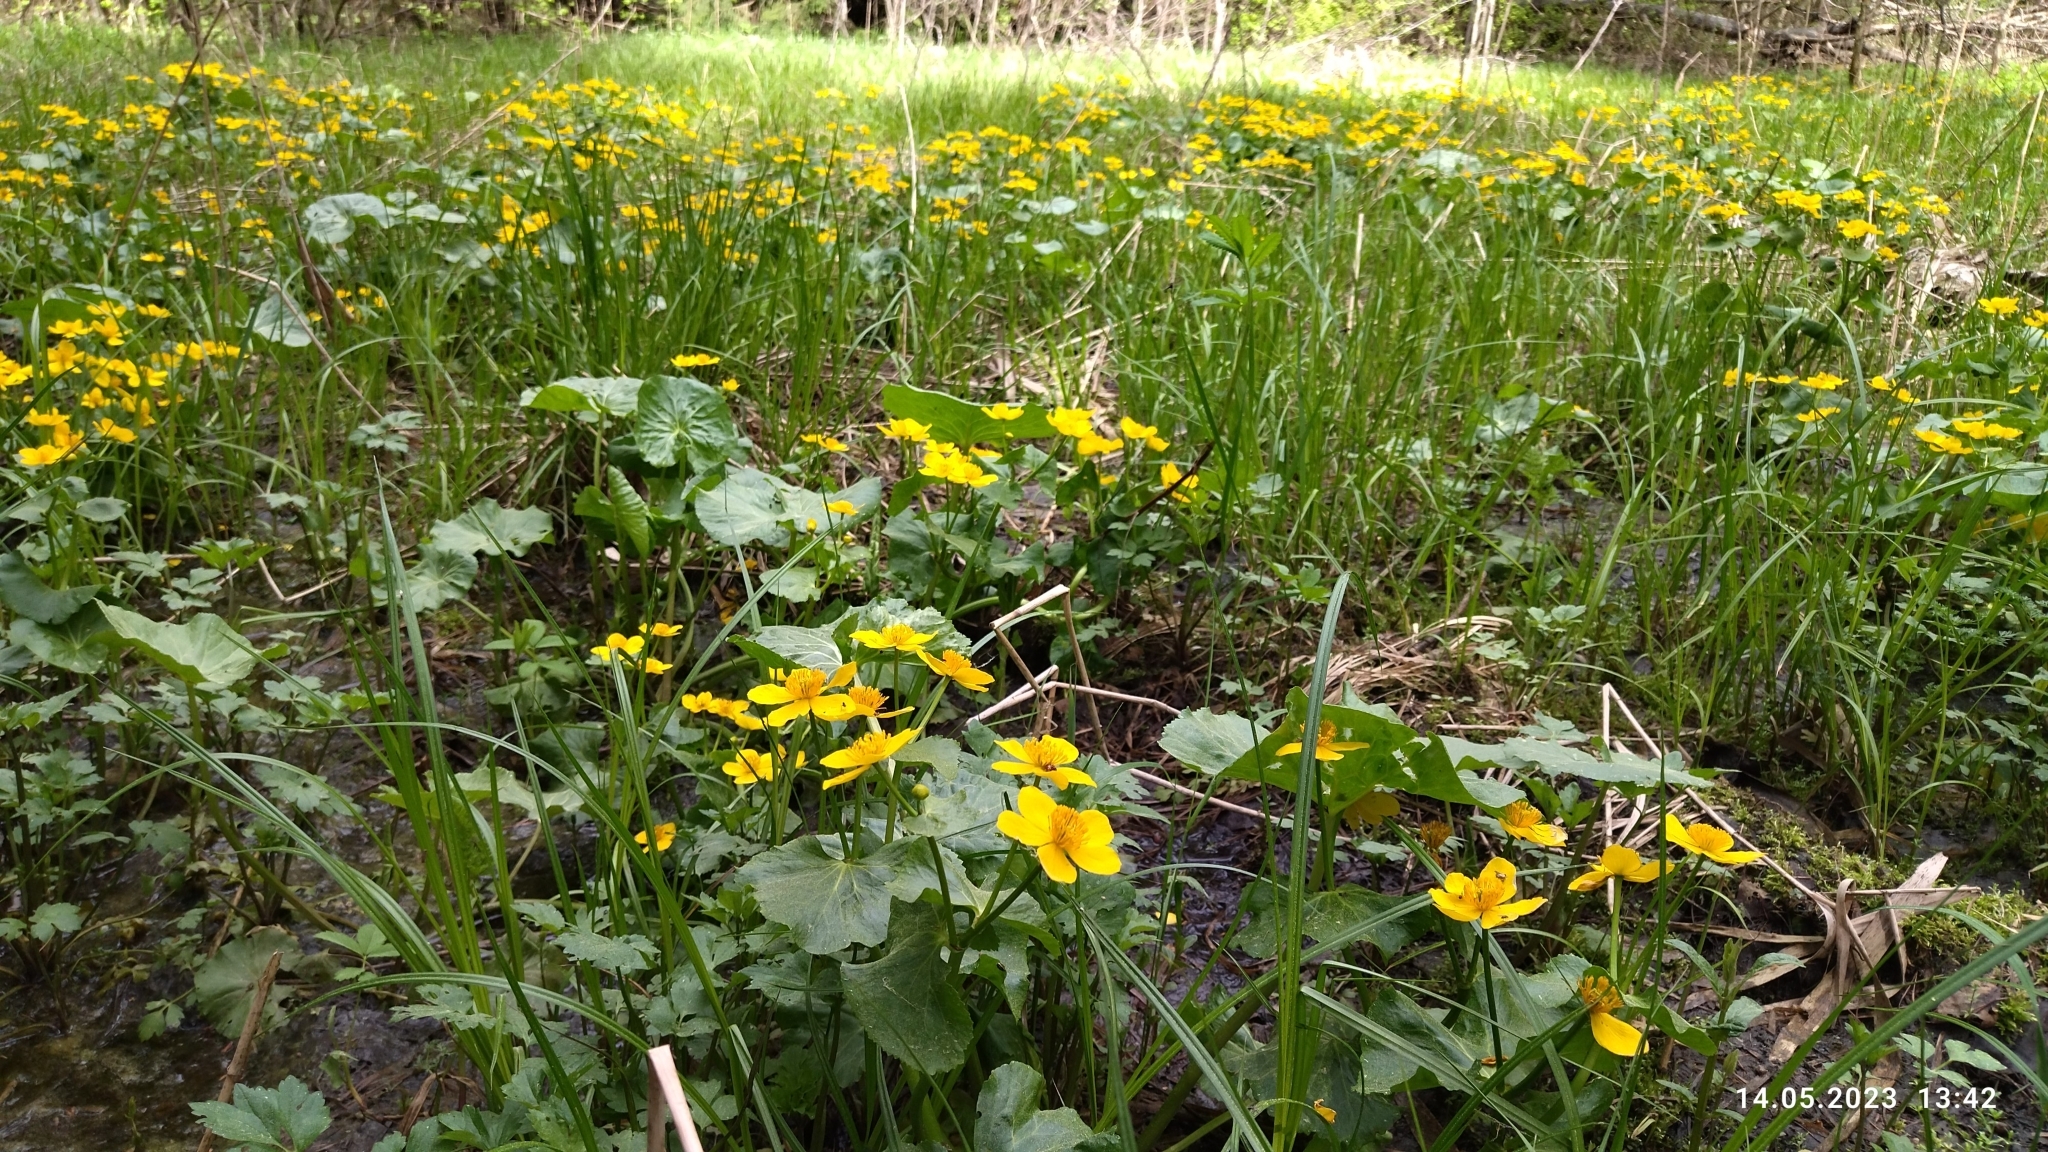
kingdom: Plantae
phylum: Tracheophyta
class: Magnoliopsida
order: Ranunculales
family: Ranunculaceae
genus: Caltha
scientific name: Caltha palustris
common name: Marsh marigold
